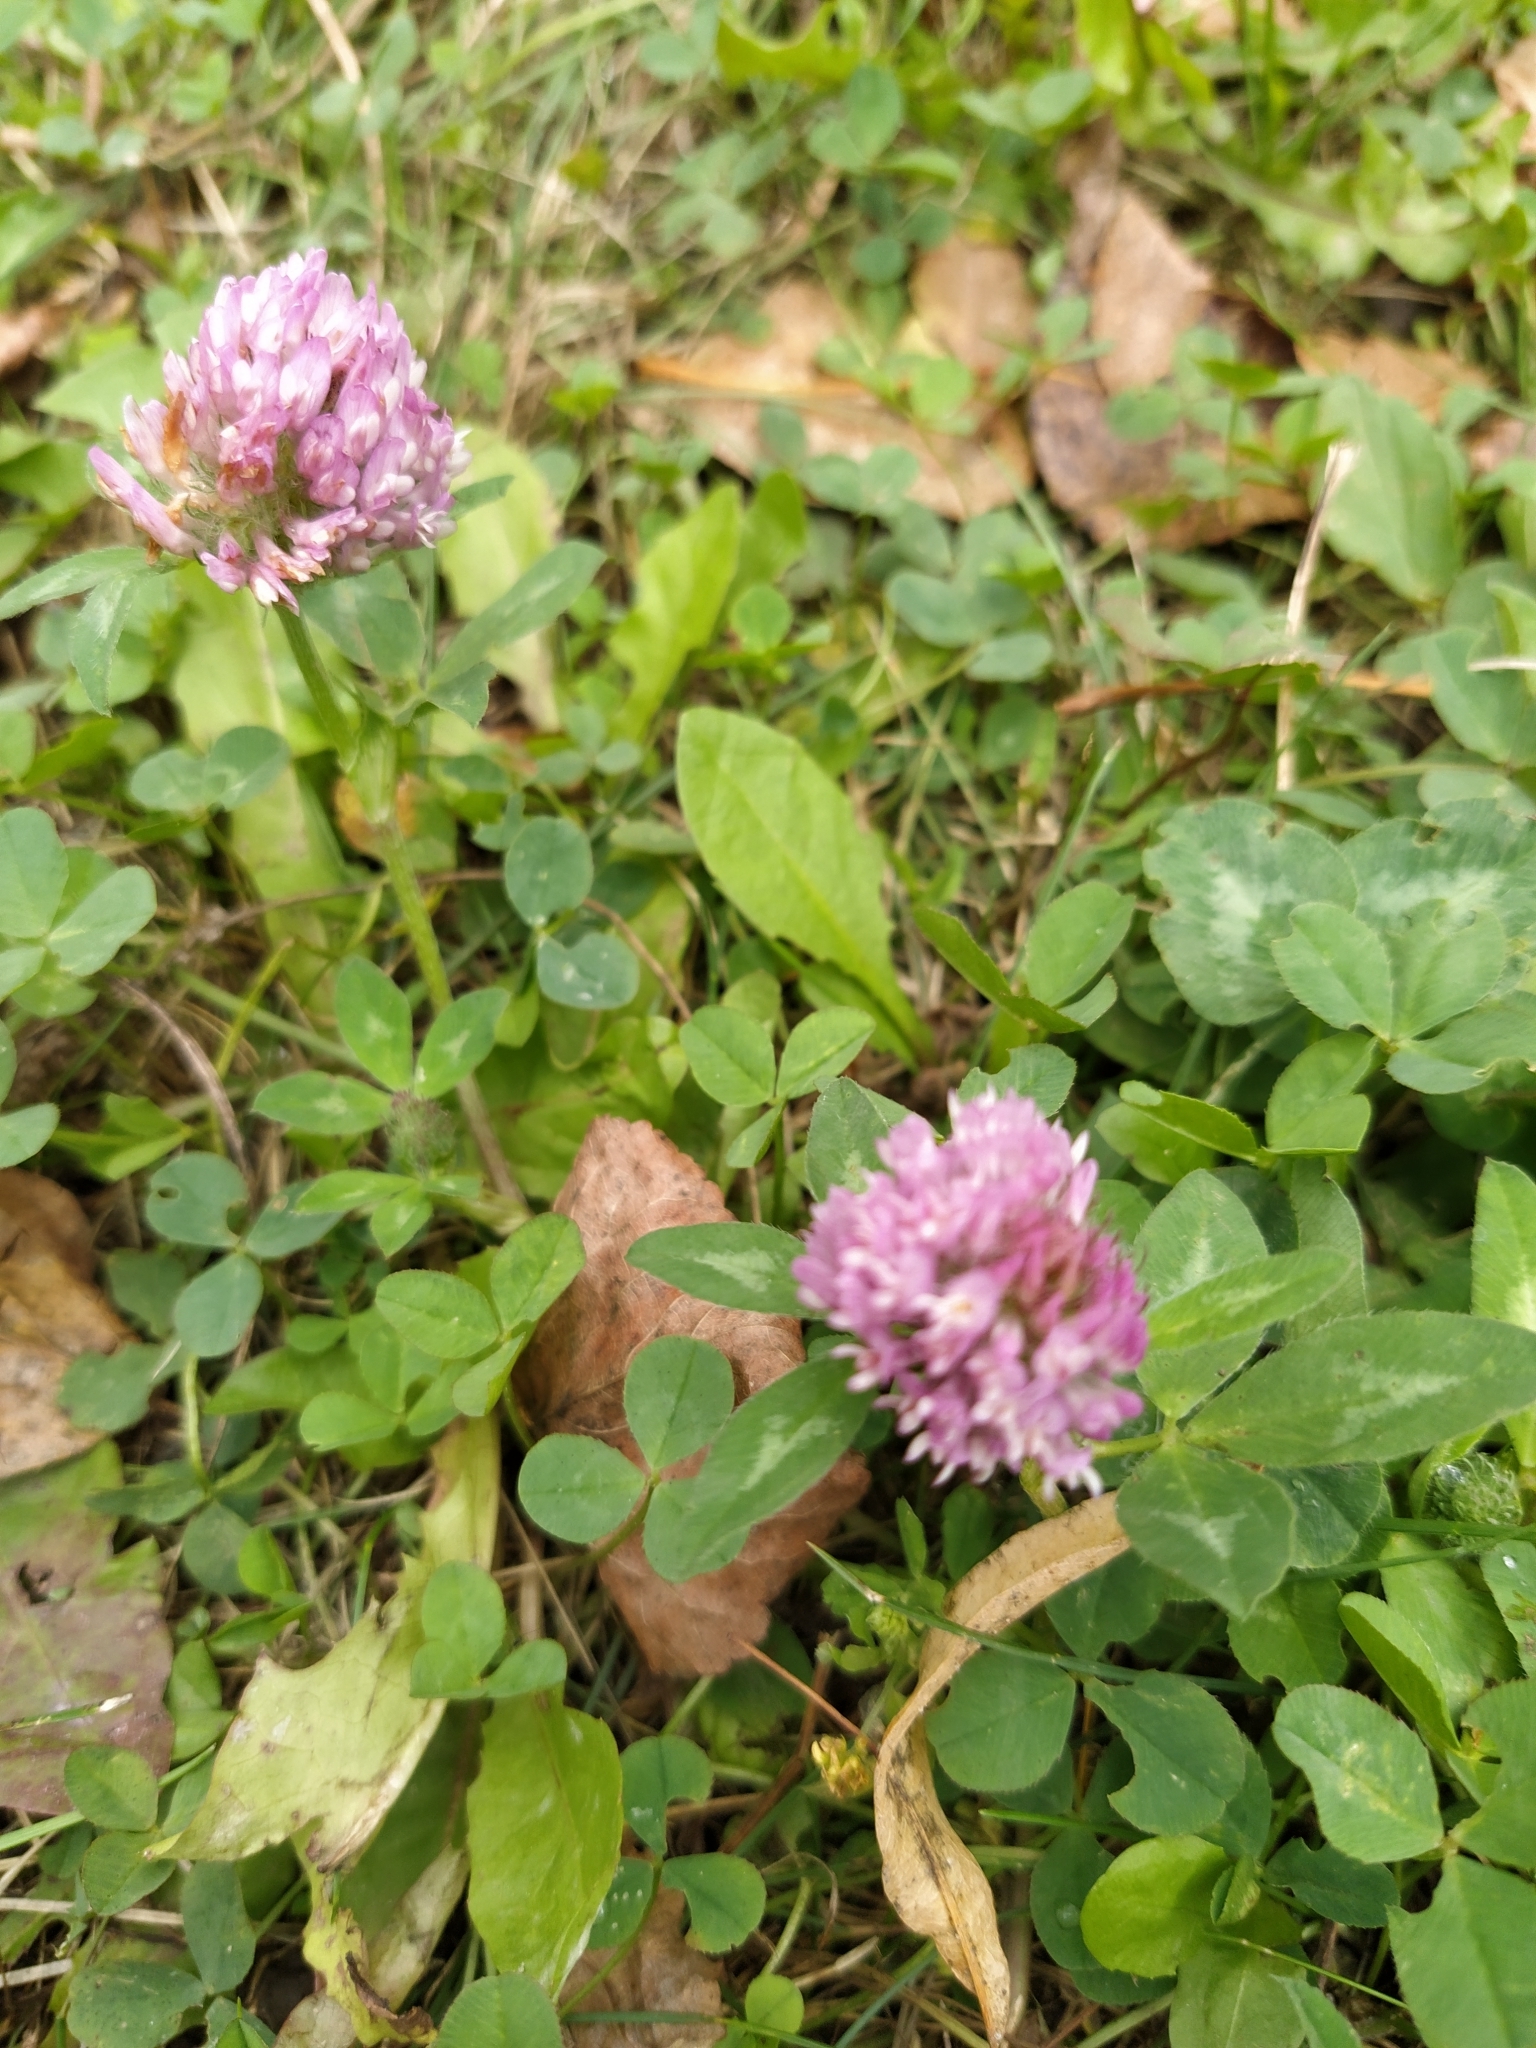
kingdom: Plantae
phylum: Tracheophyta
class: Magnoliopsida
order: Fabales
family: Fabaceae
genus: Trifolium
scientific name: Trifolium pratense
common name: Red clover
